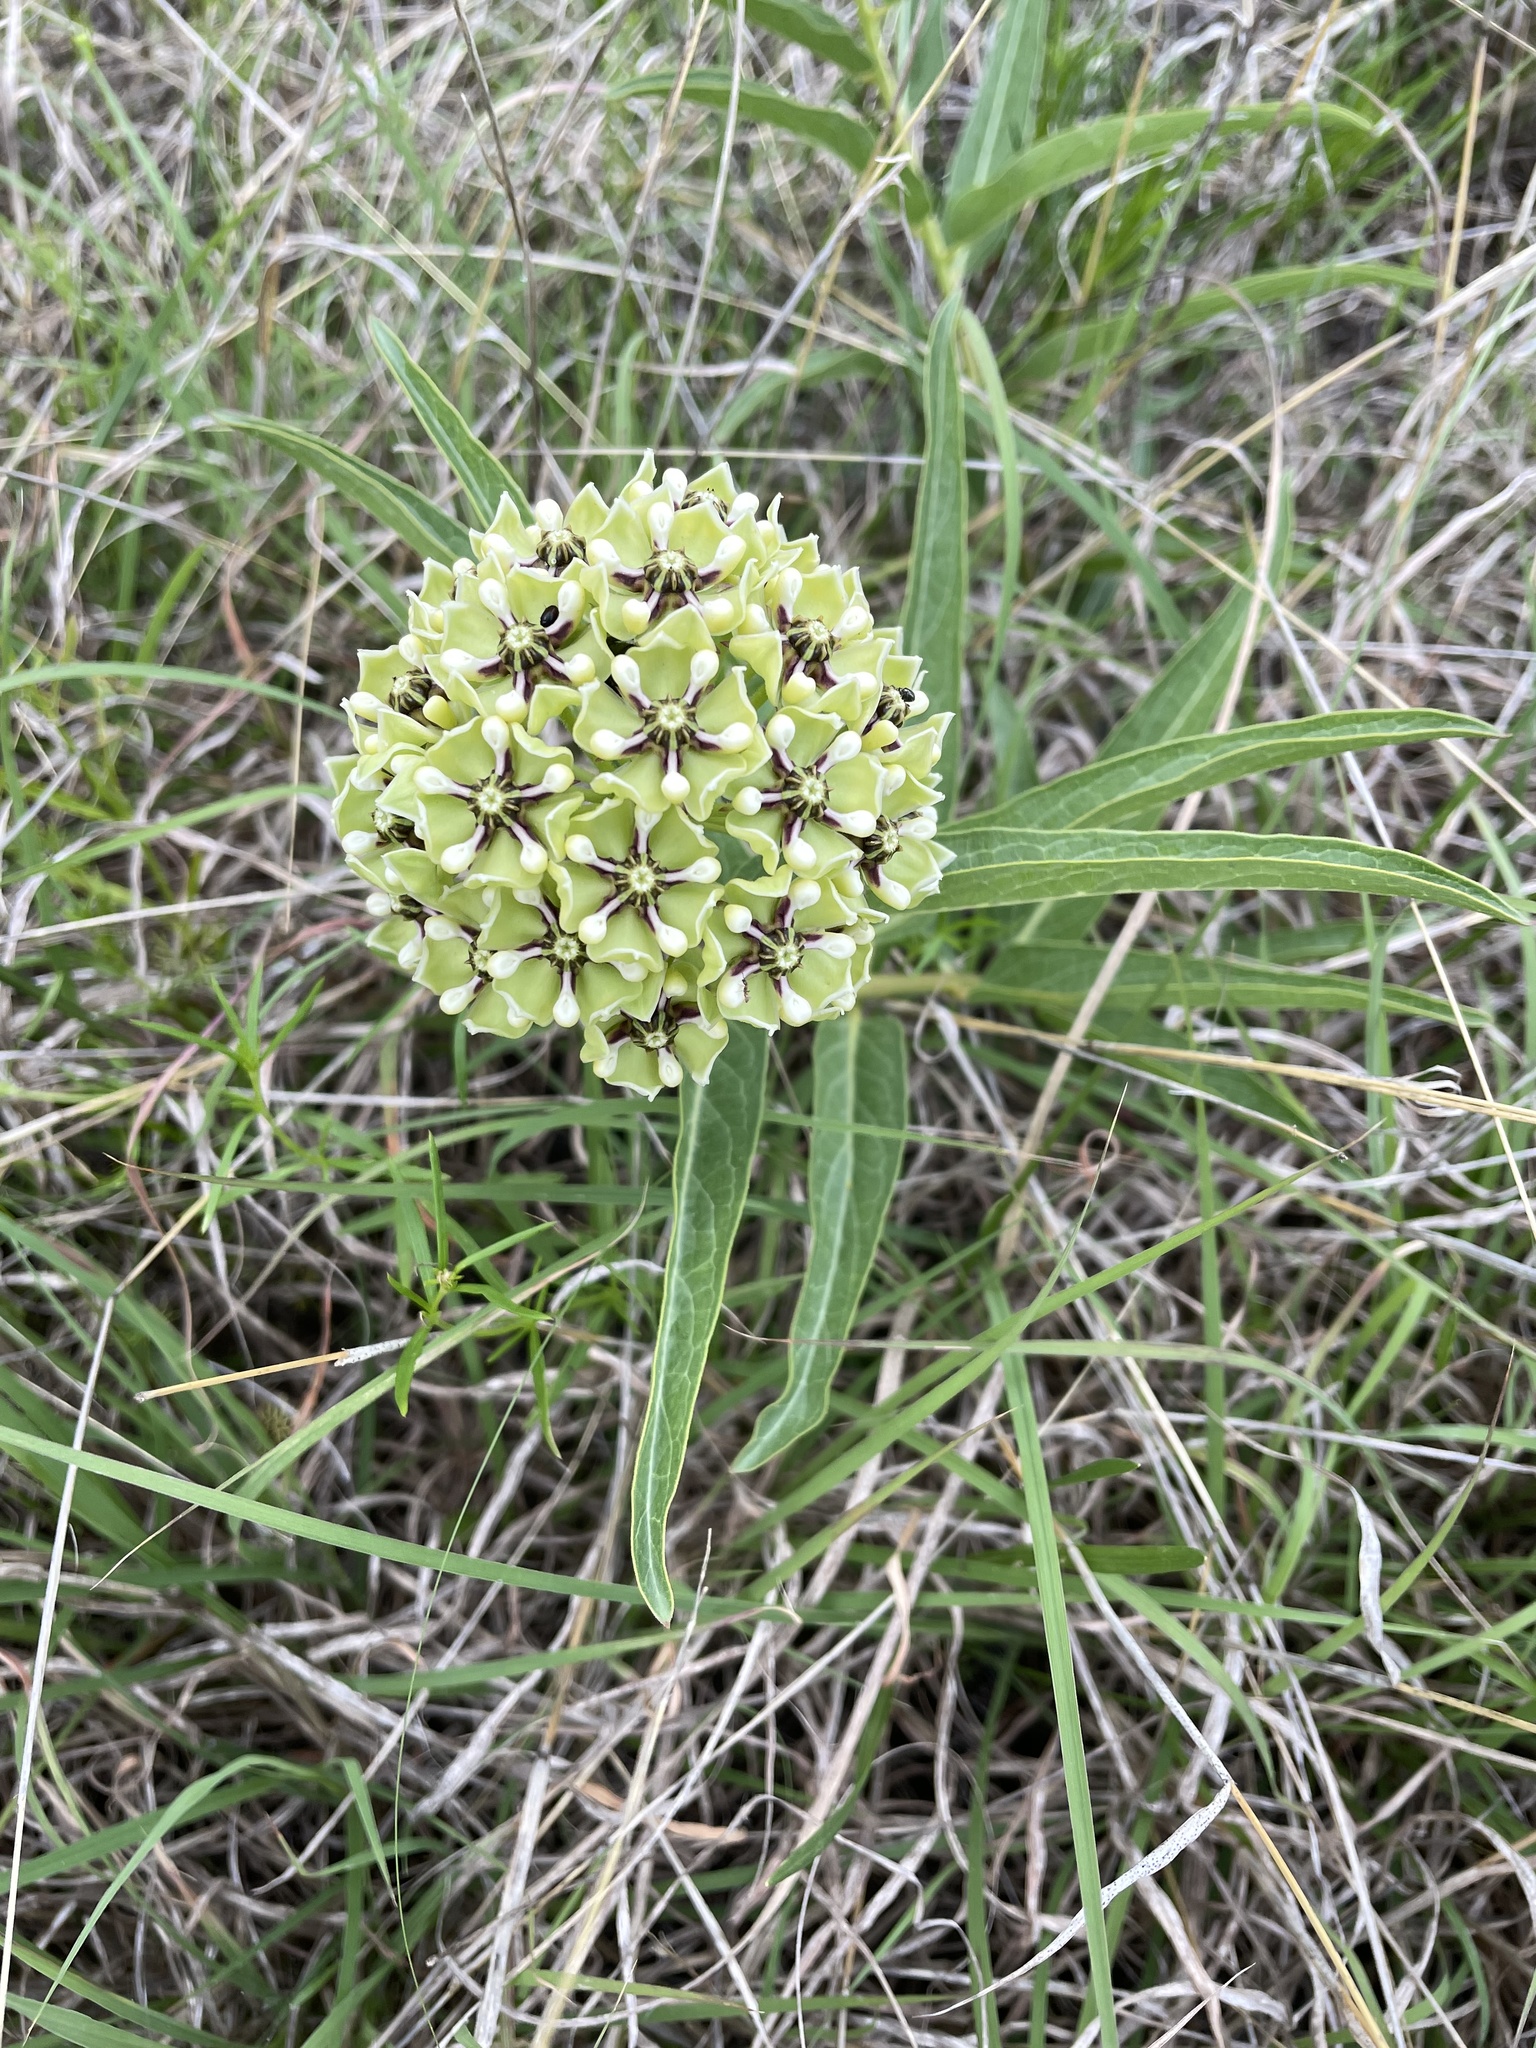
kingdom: Plantae
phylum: Tracheophyta
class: Magnoliopsida
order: Gentianales
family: Apocynaceae
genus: Asclepias
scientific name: Asclepias asperula
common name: Antelope horns
